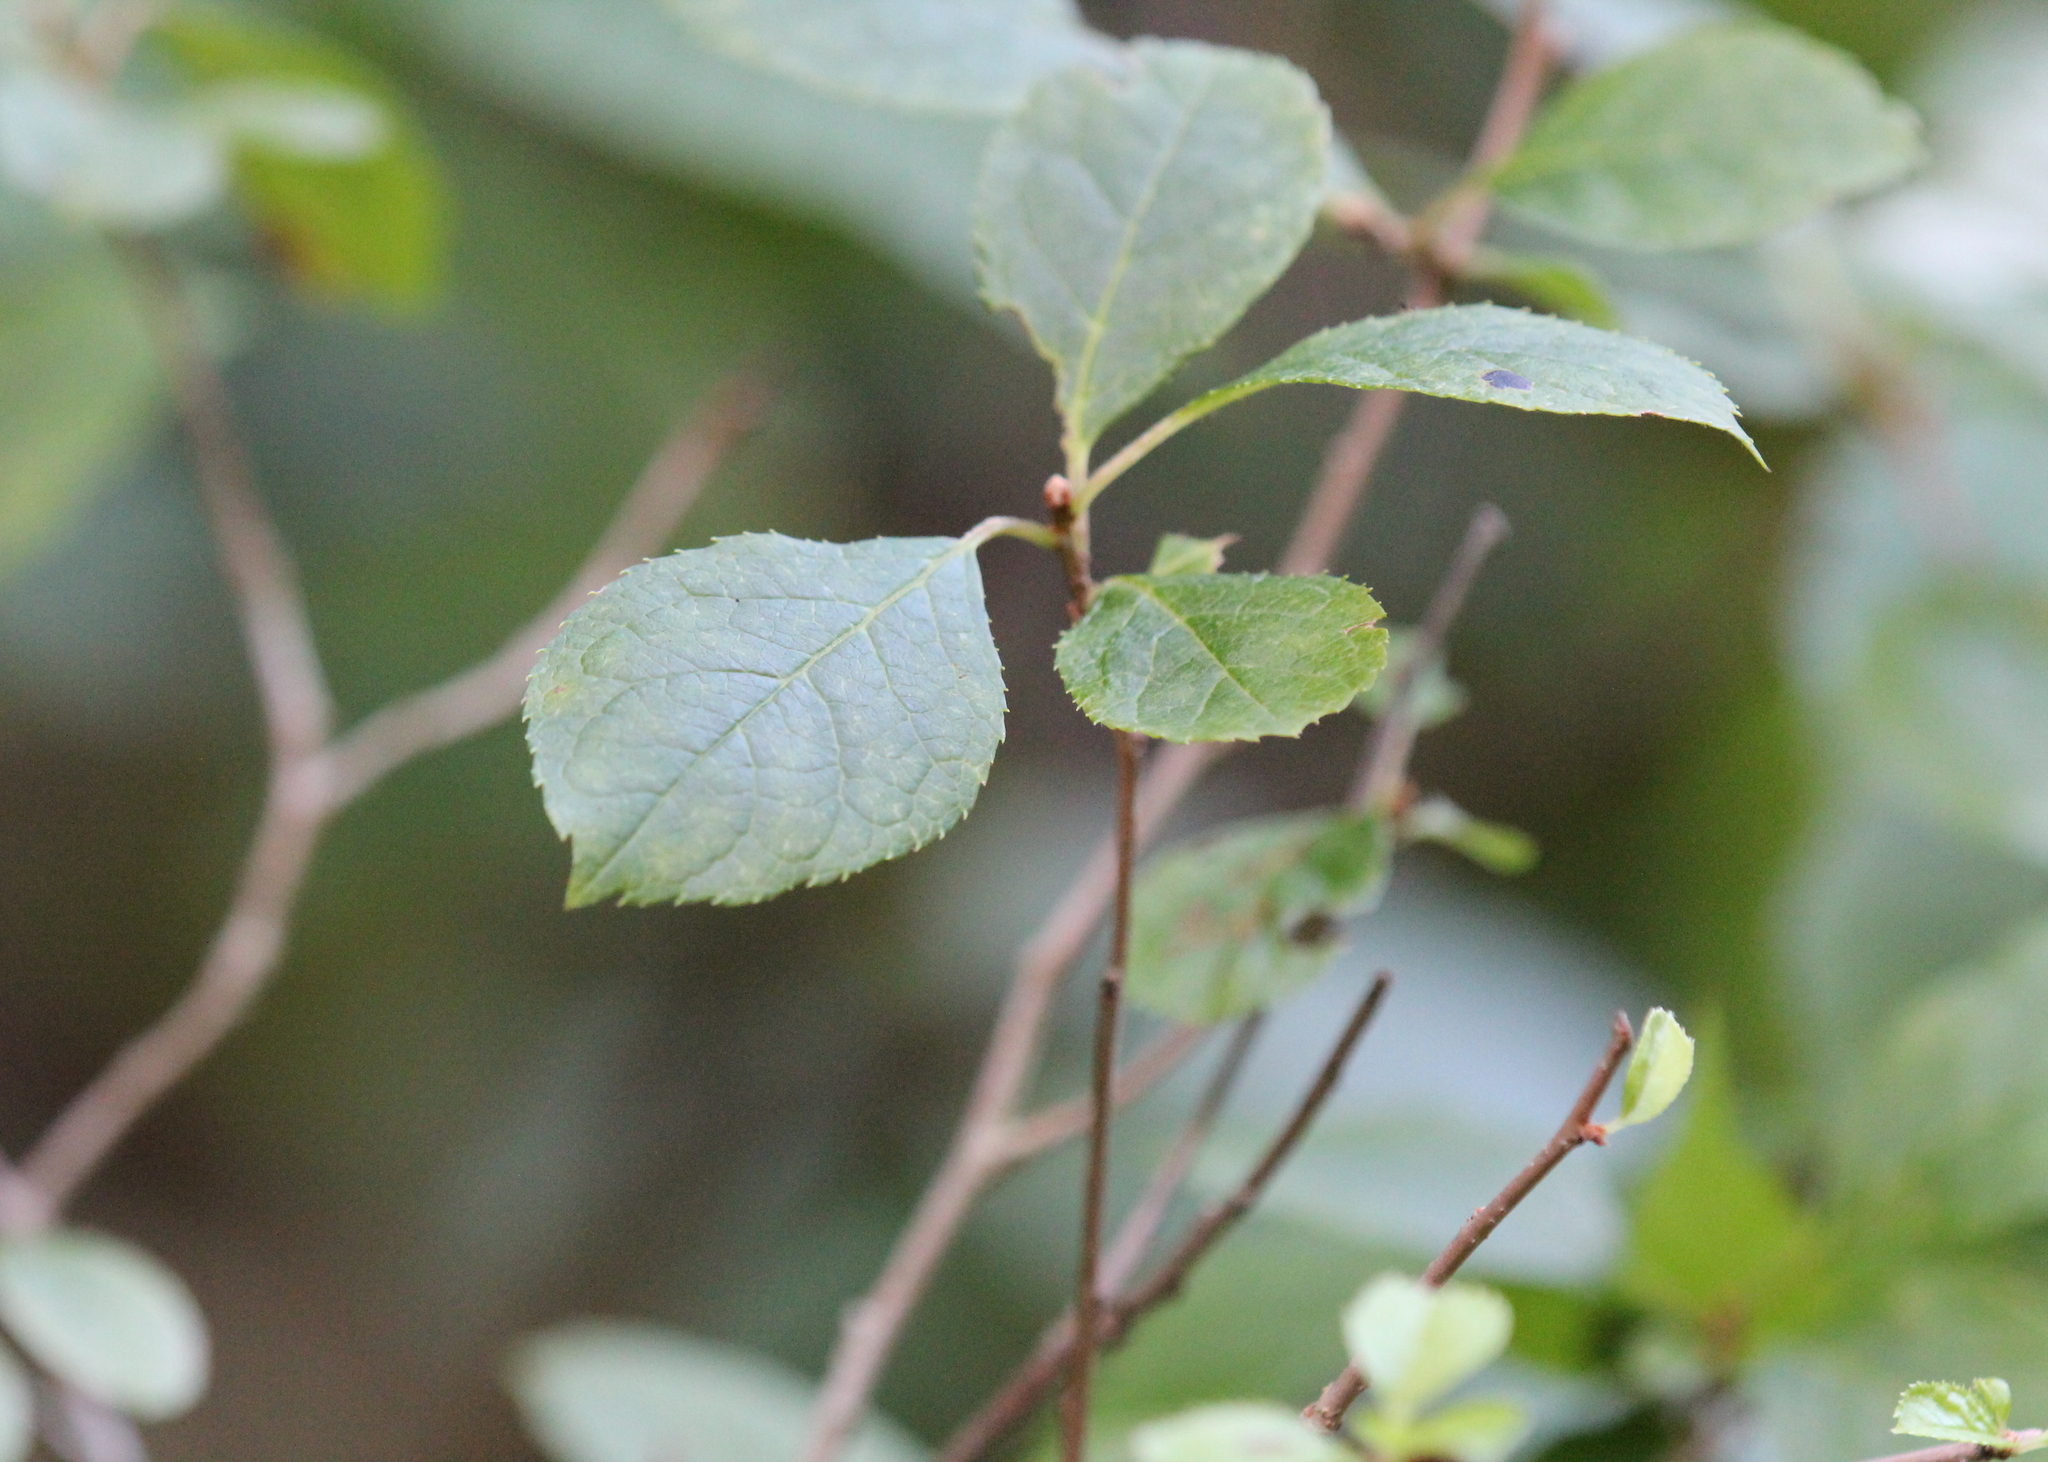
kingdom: Plantae
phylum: Tracheophyta
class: Magnoliopsida
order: Aquifoliales
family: Aquifoliaceae
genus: Ilex
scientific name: Ilex verticillata
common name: Virginia winterberry
